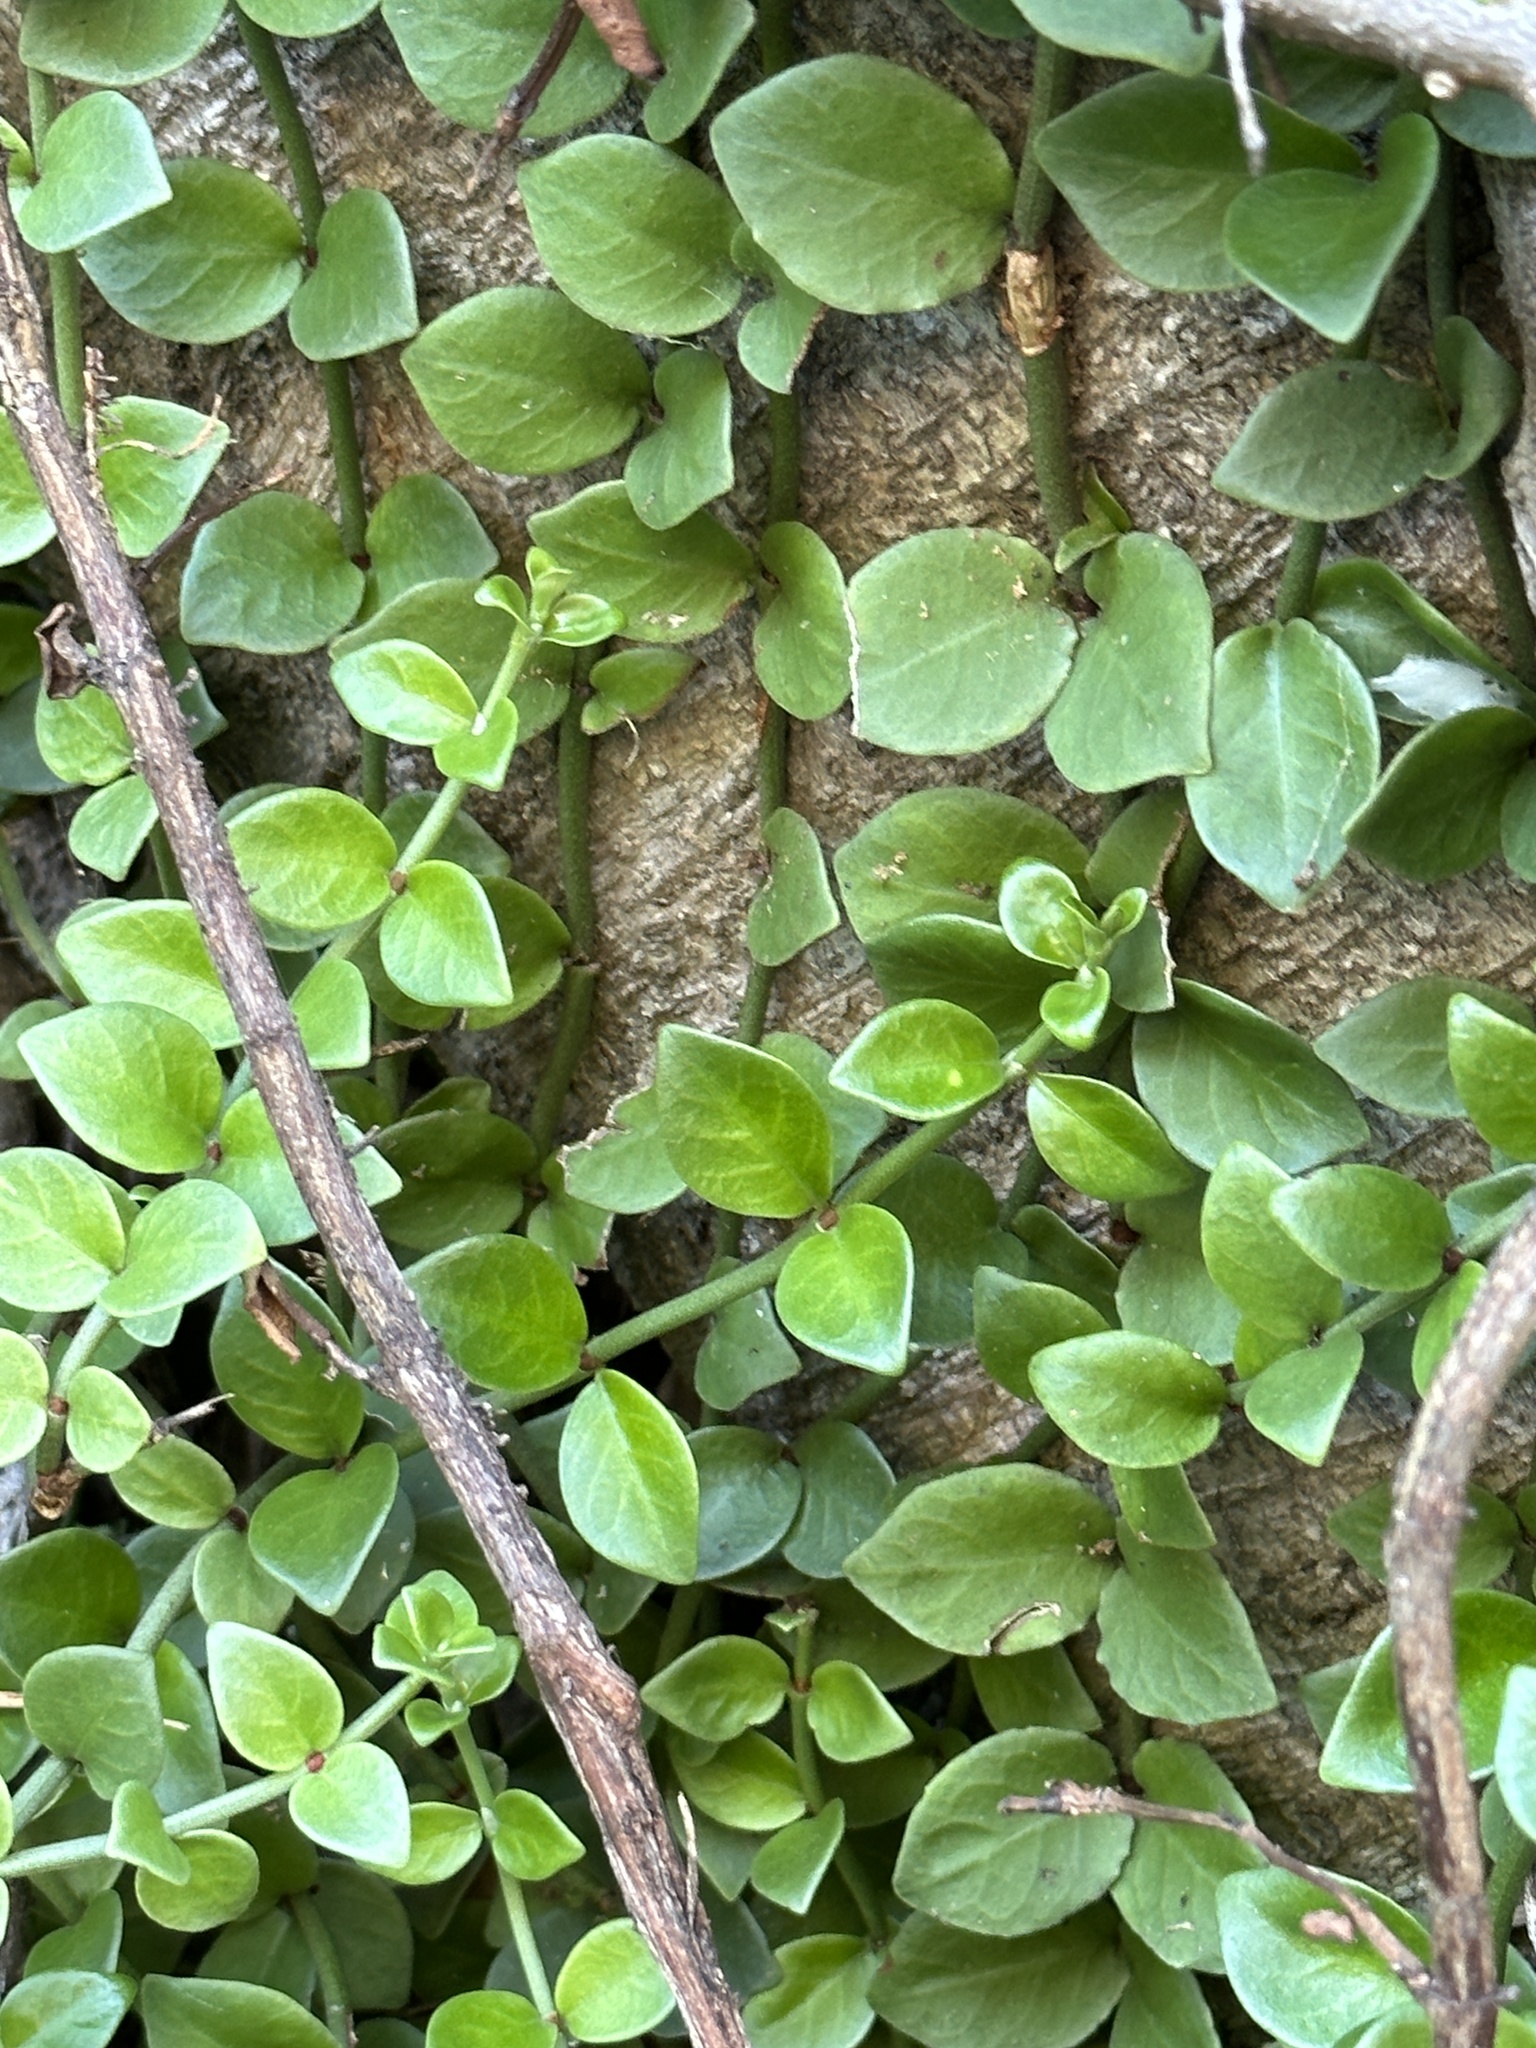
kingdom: Plantae
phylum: Tracheophyta
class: Magnoliopsida
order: Gentianales
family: Rubiaceae
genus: Psychotria
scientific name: Psychotria serpens
